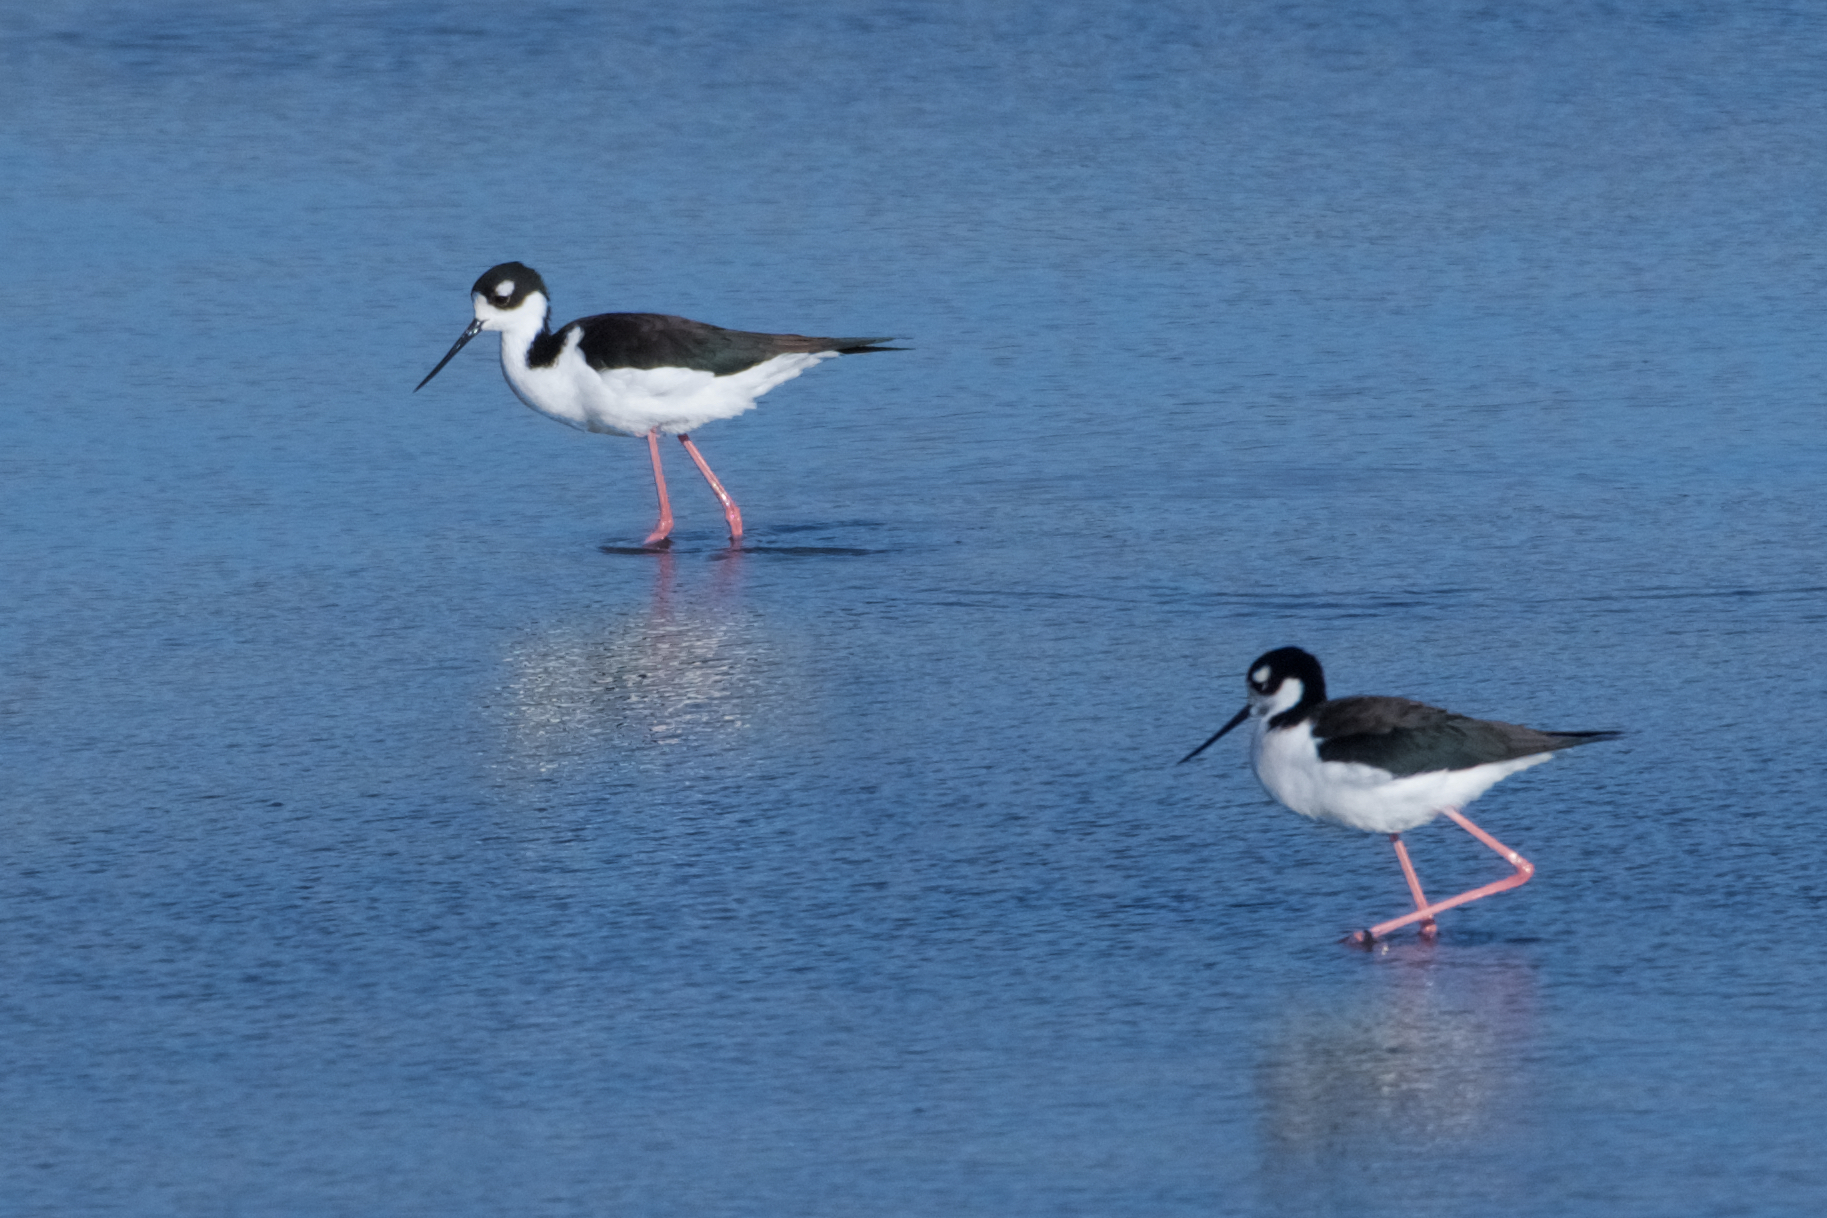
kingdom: Animalia
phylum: Chordata
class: Aves
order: Charadriiformes
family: Recurvirostridae
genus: Himantopus
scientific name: Himantopus mexicanus
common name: Black-necked stilt
